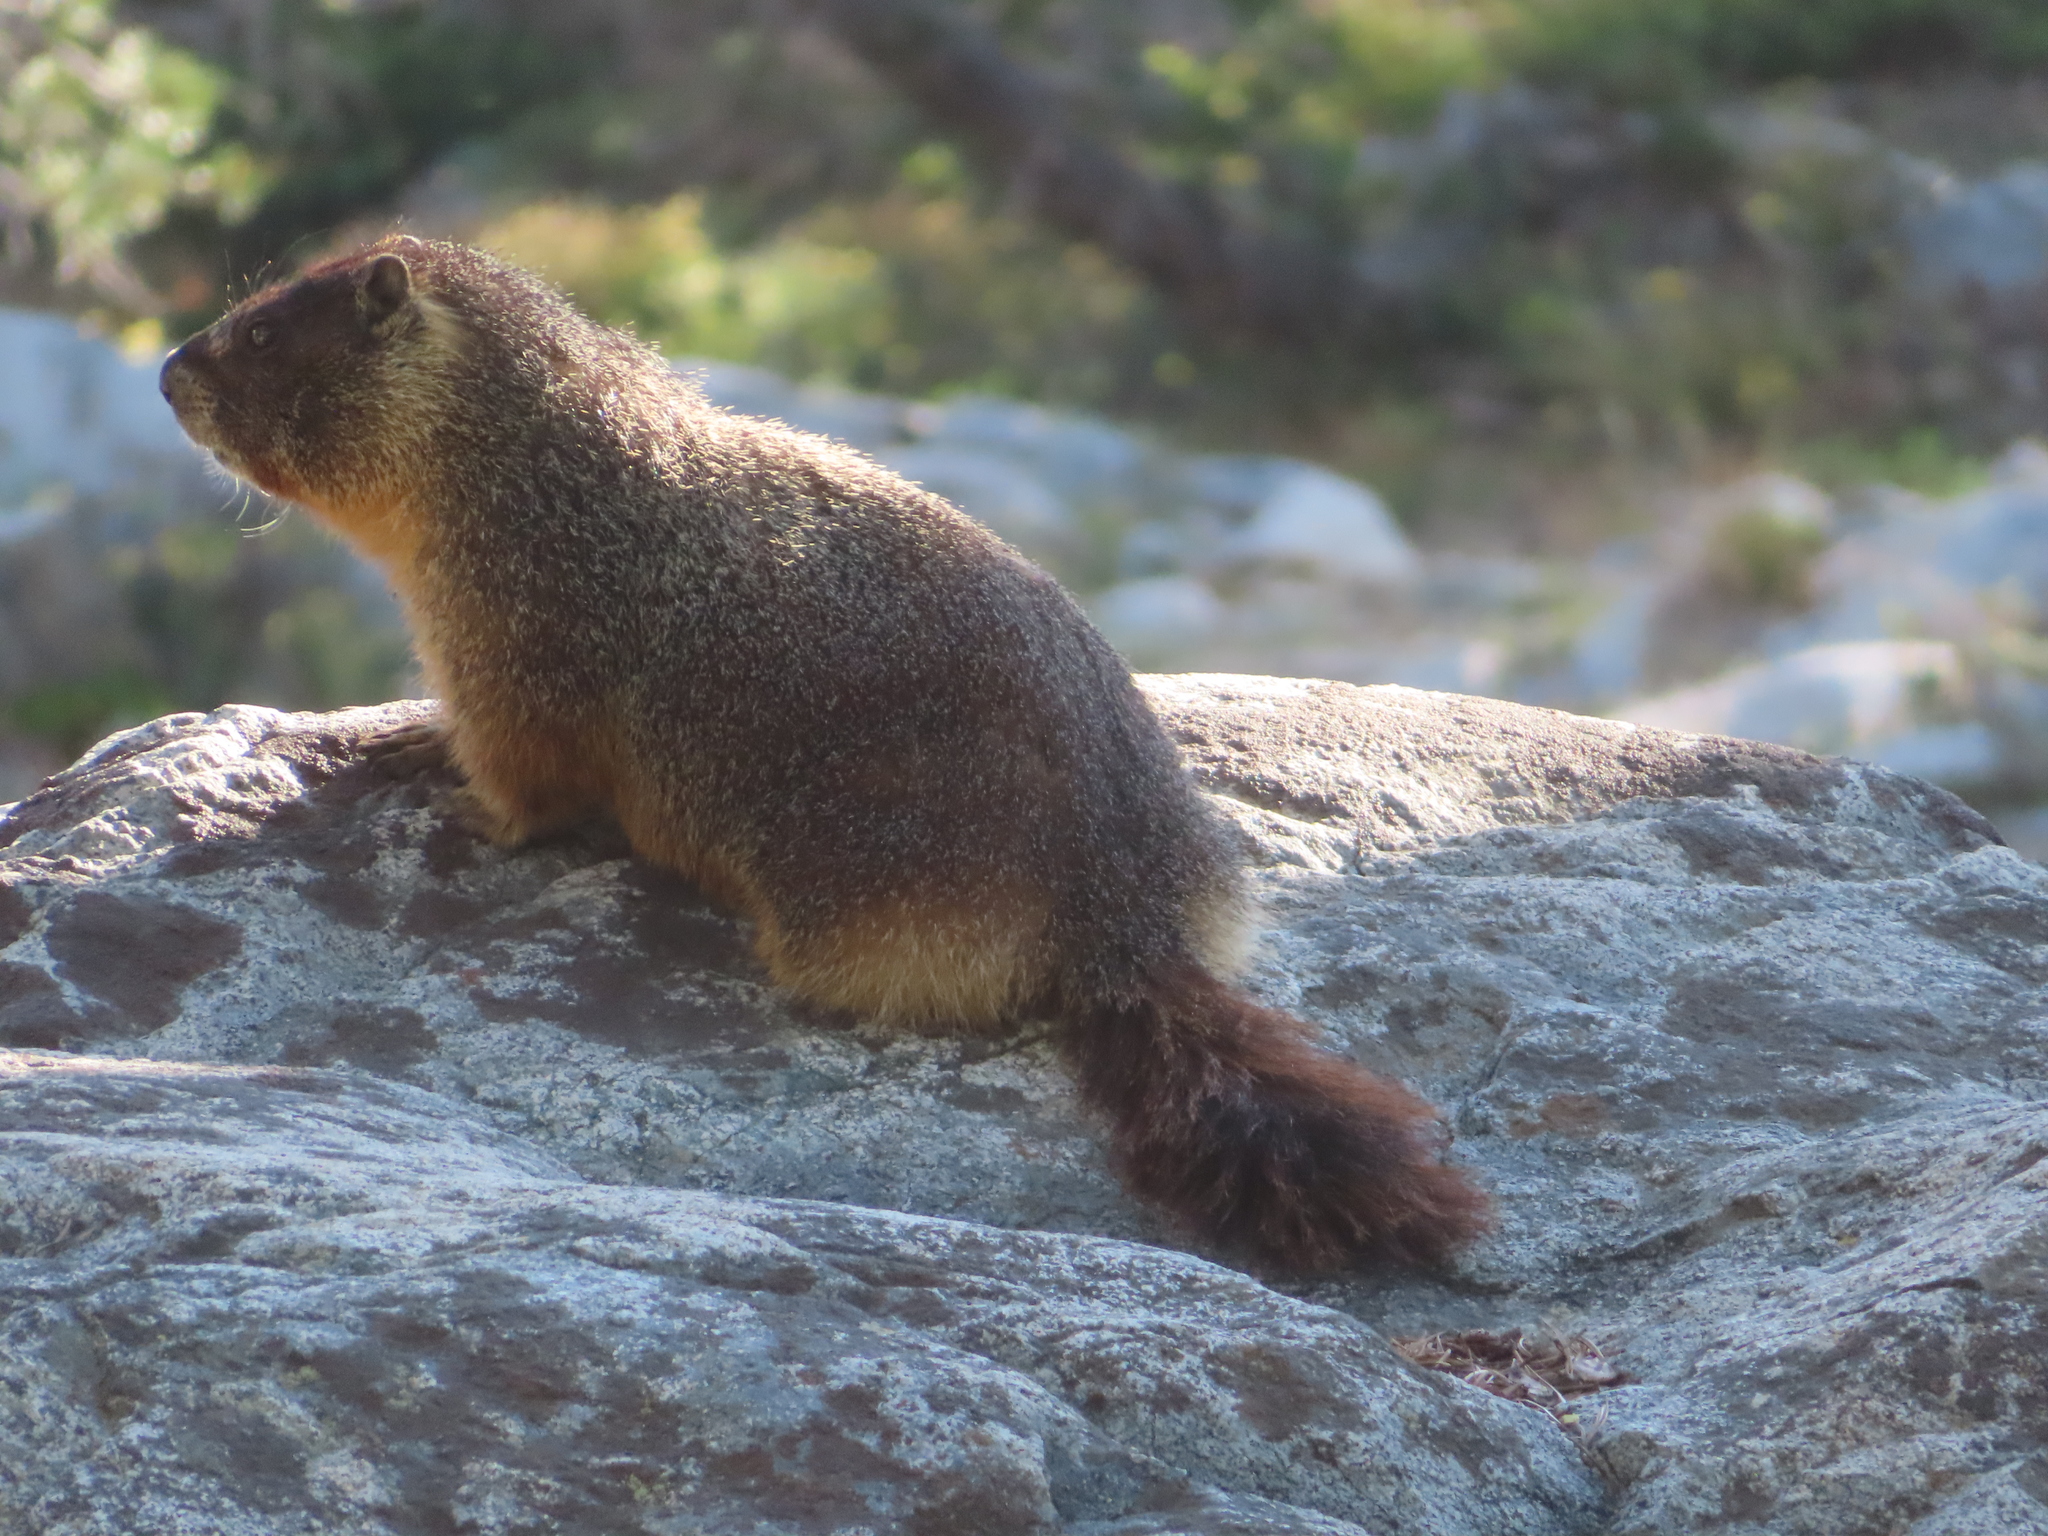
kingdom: Animalia
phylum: Chordata
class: Mammalia
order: Rodentia
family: Sciuridae
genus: Marmota
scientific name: Marmota flaviventris
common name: Yellow-bellied marmot
